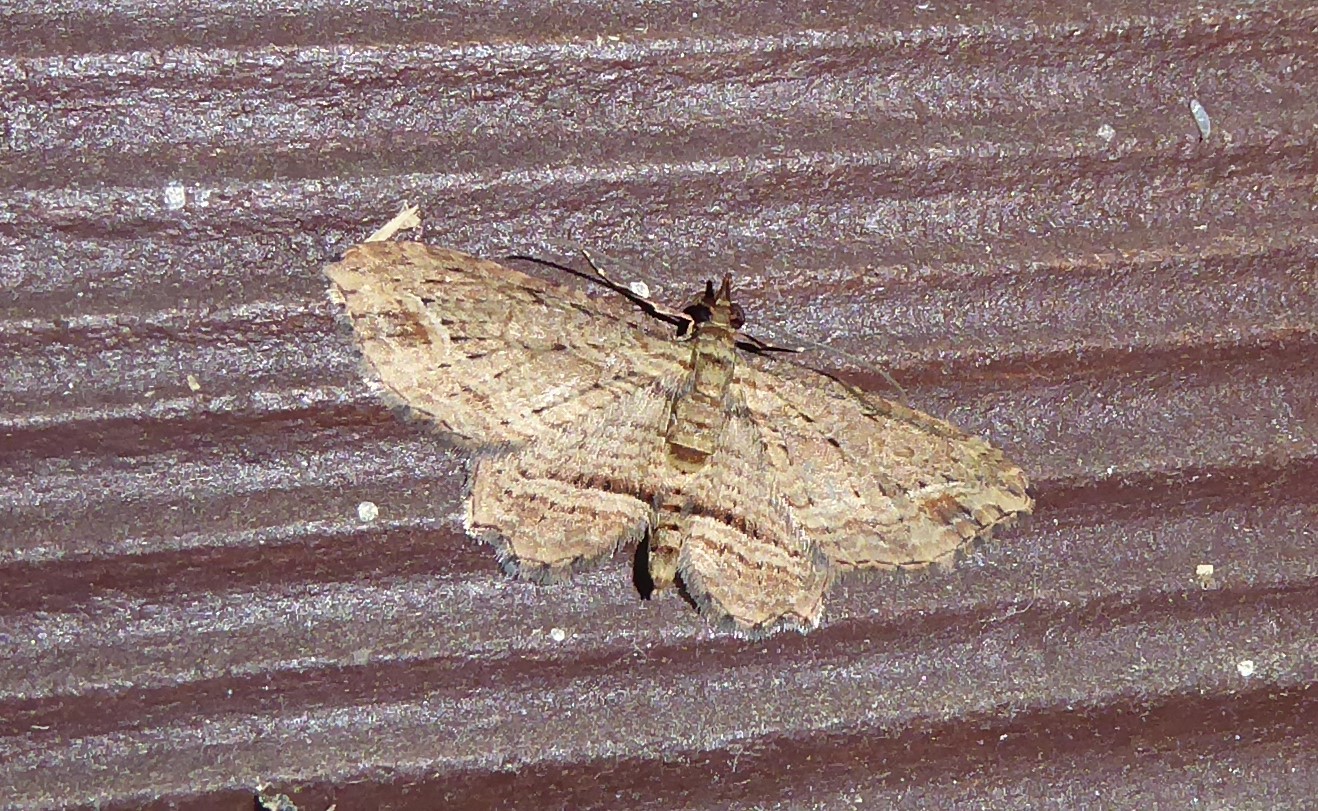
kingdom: Animalia
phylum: Arthropoda
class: Insecta
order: Lepidoptera
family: Geometridae
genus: Chloroclystis
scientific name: Chloroclystis filata
